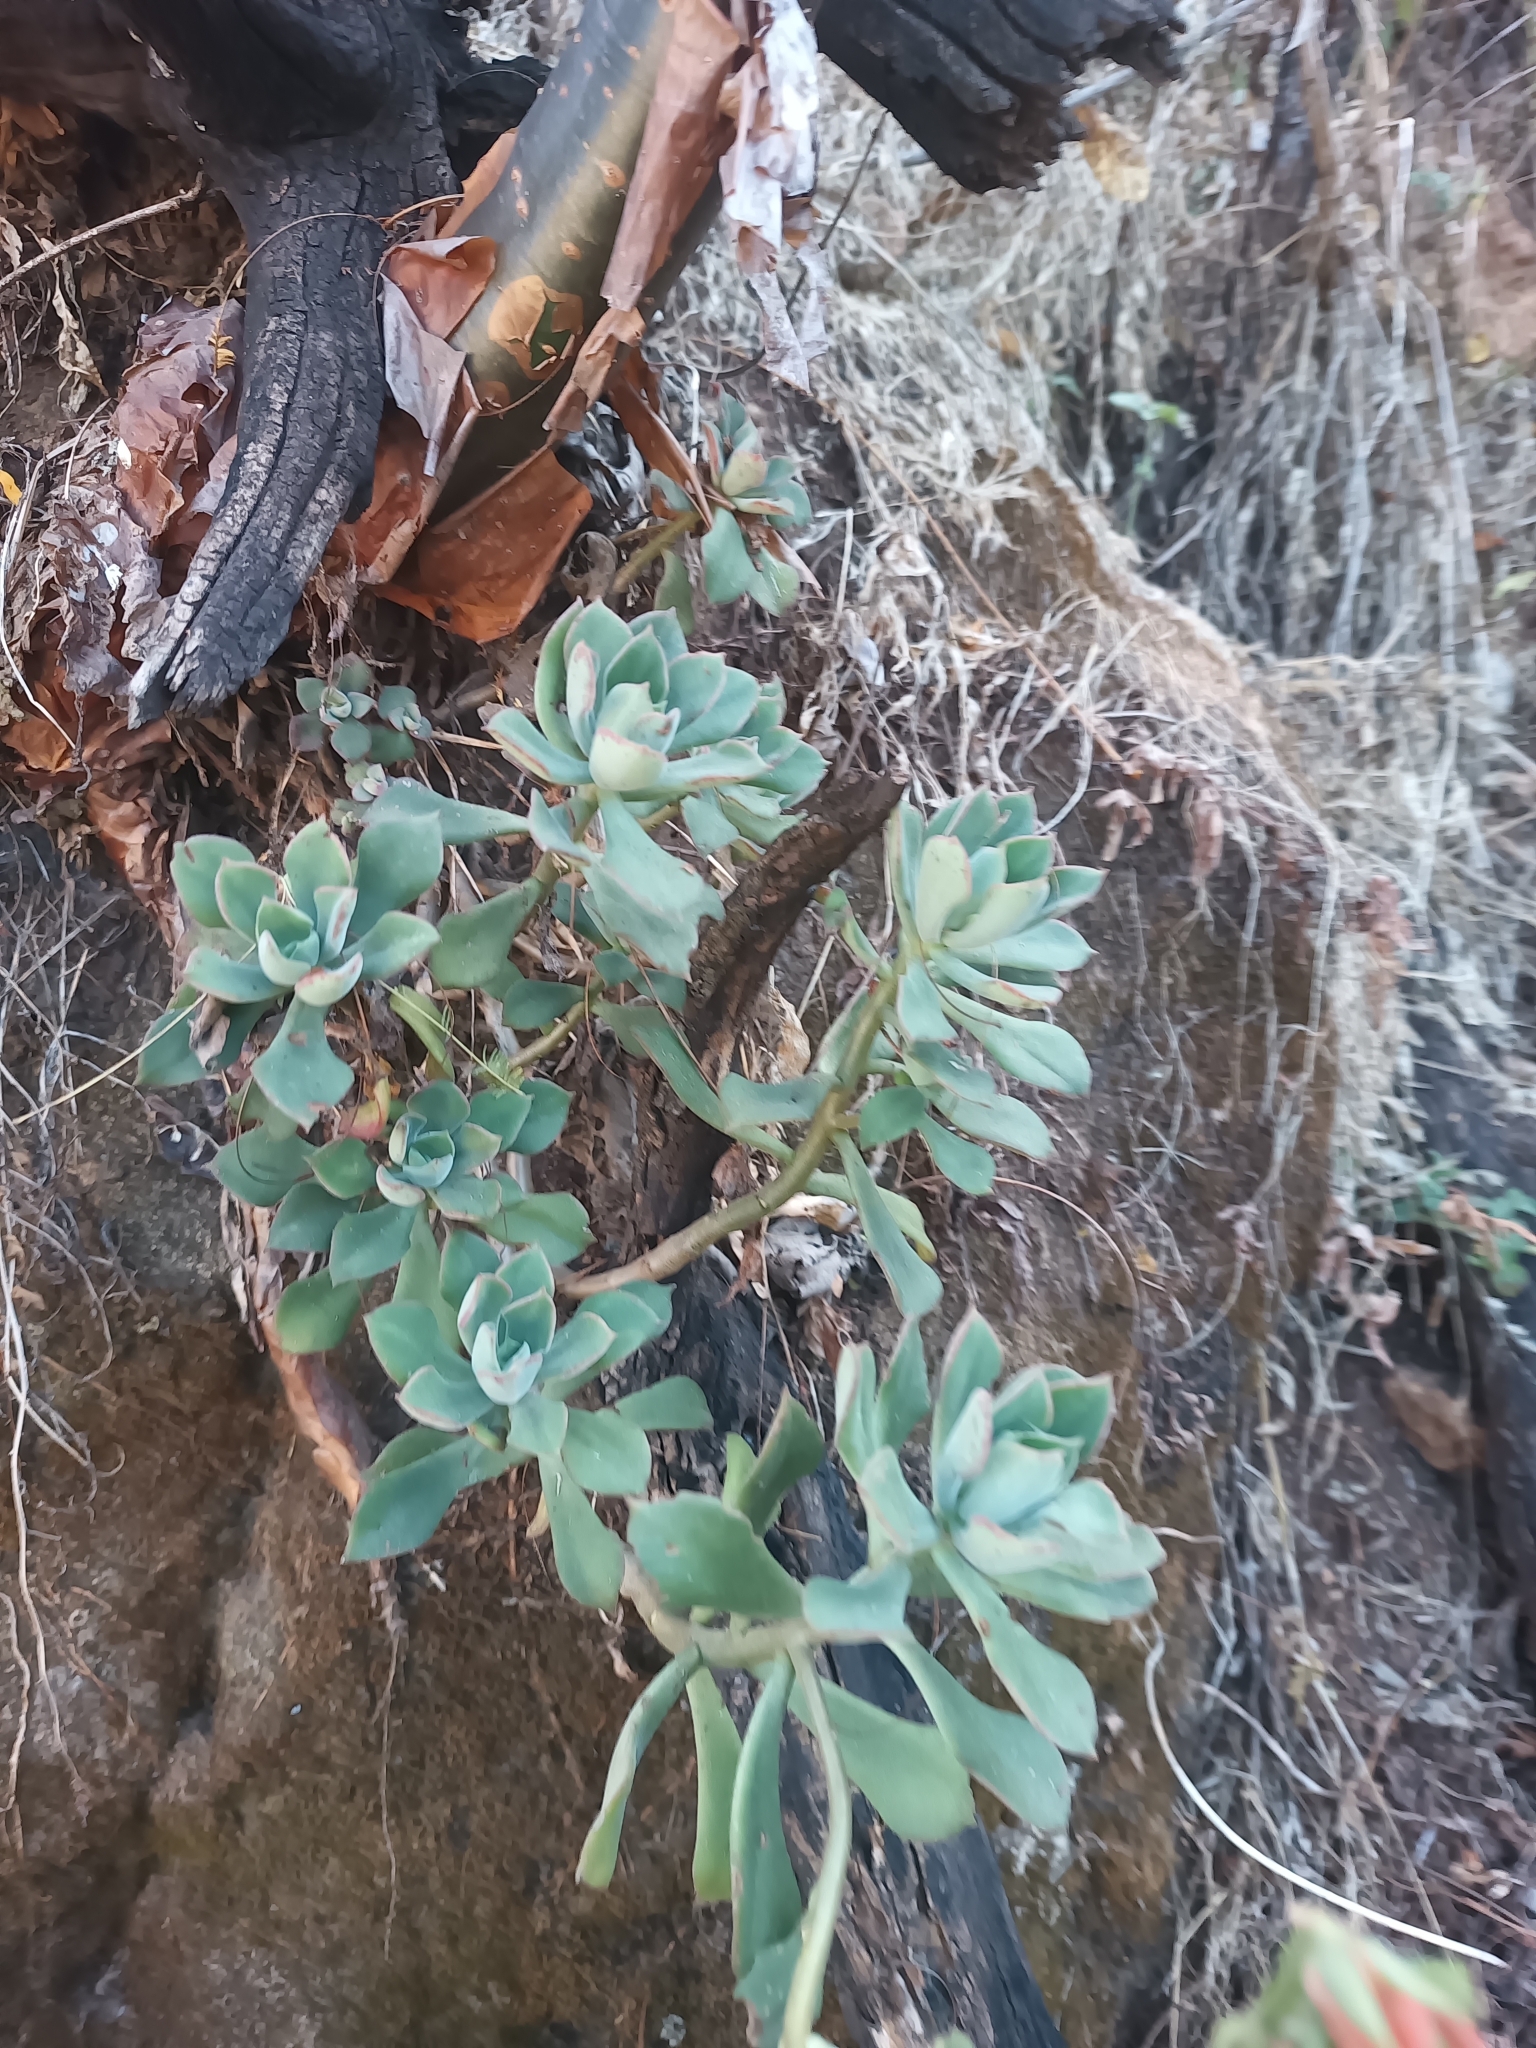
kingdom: Plantae
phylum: Tracheophyta
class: Magnoliopsida
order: Saxifragales
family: Crassulaceae
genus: Echeveria
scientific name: Echeveria pringlei
